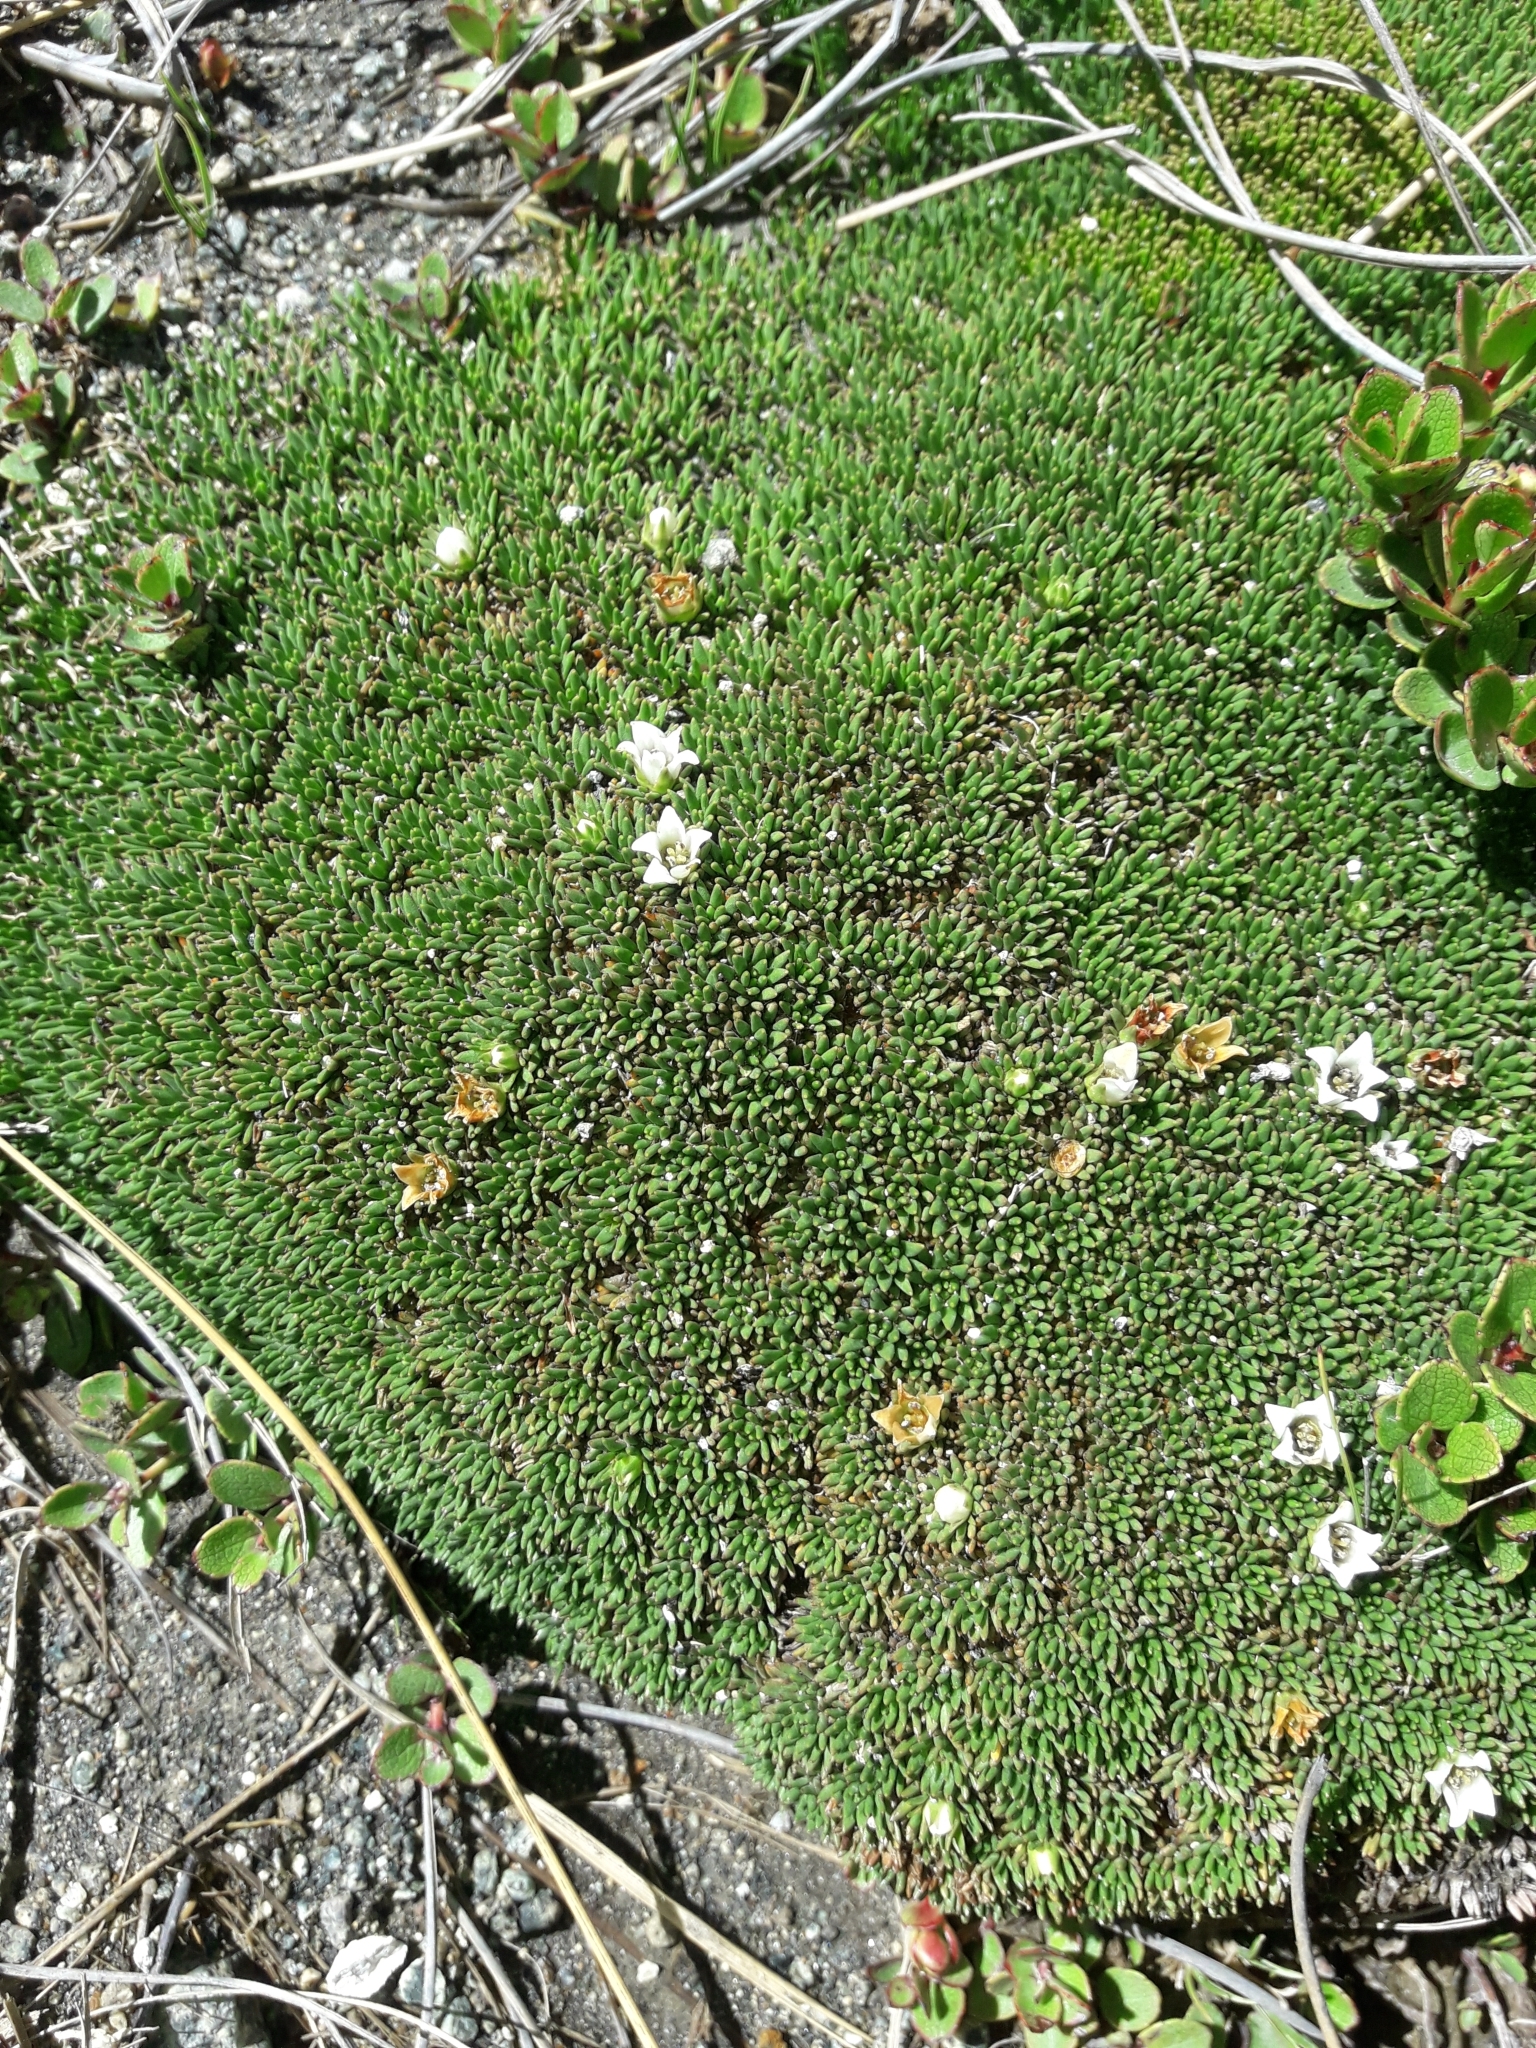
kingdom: Plantae
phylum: Tracheophyta
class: Magnoliopsida
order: Asterales
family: Stylidiaceae
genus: Donatia
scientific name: Donatia novae-zelandiae
